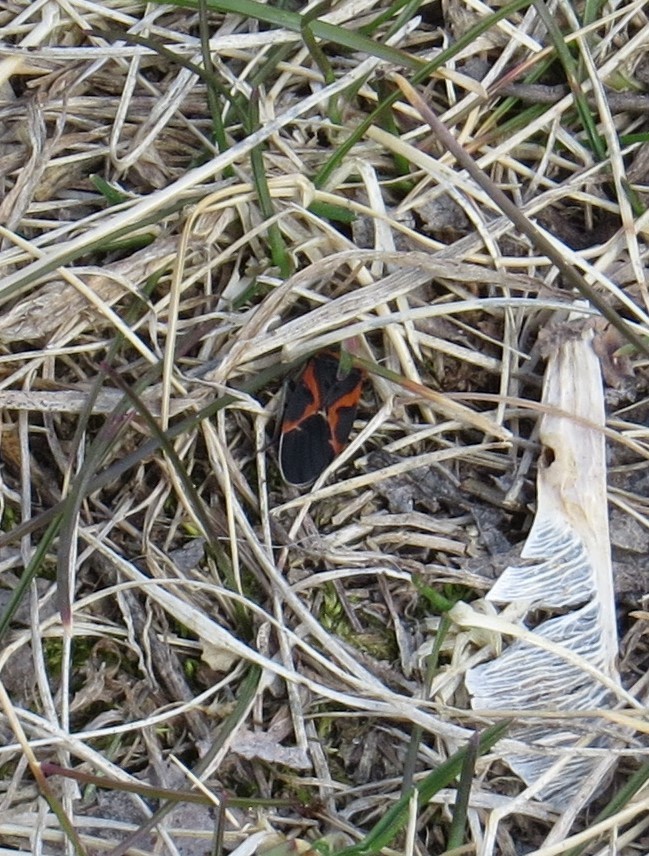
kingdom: Animalia
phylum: Arthropoda
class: Insecta
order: Hemiptera
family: Lygaeidae
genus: Lygaeus
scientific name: Lygaeus kalmii
